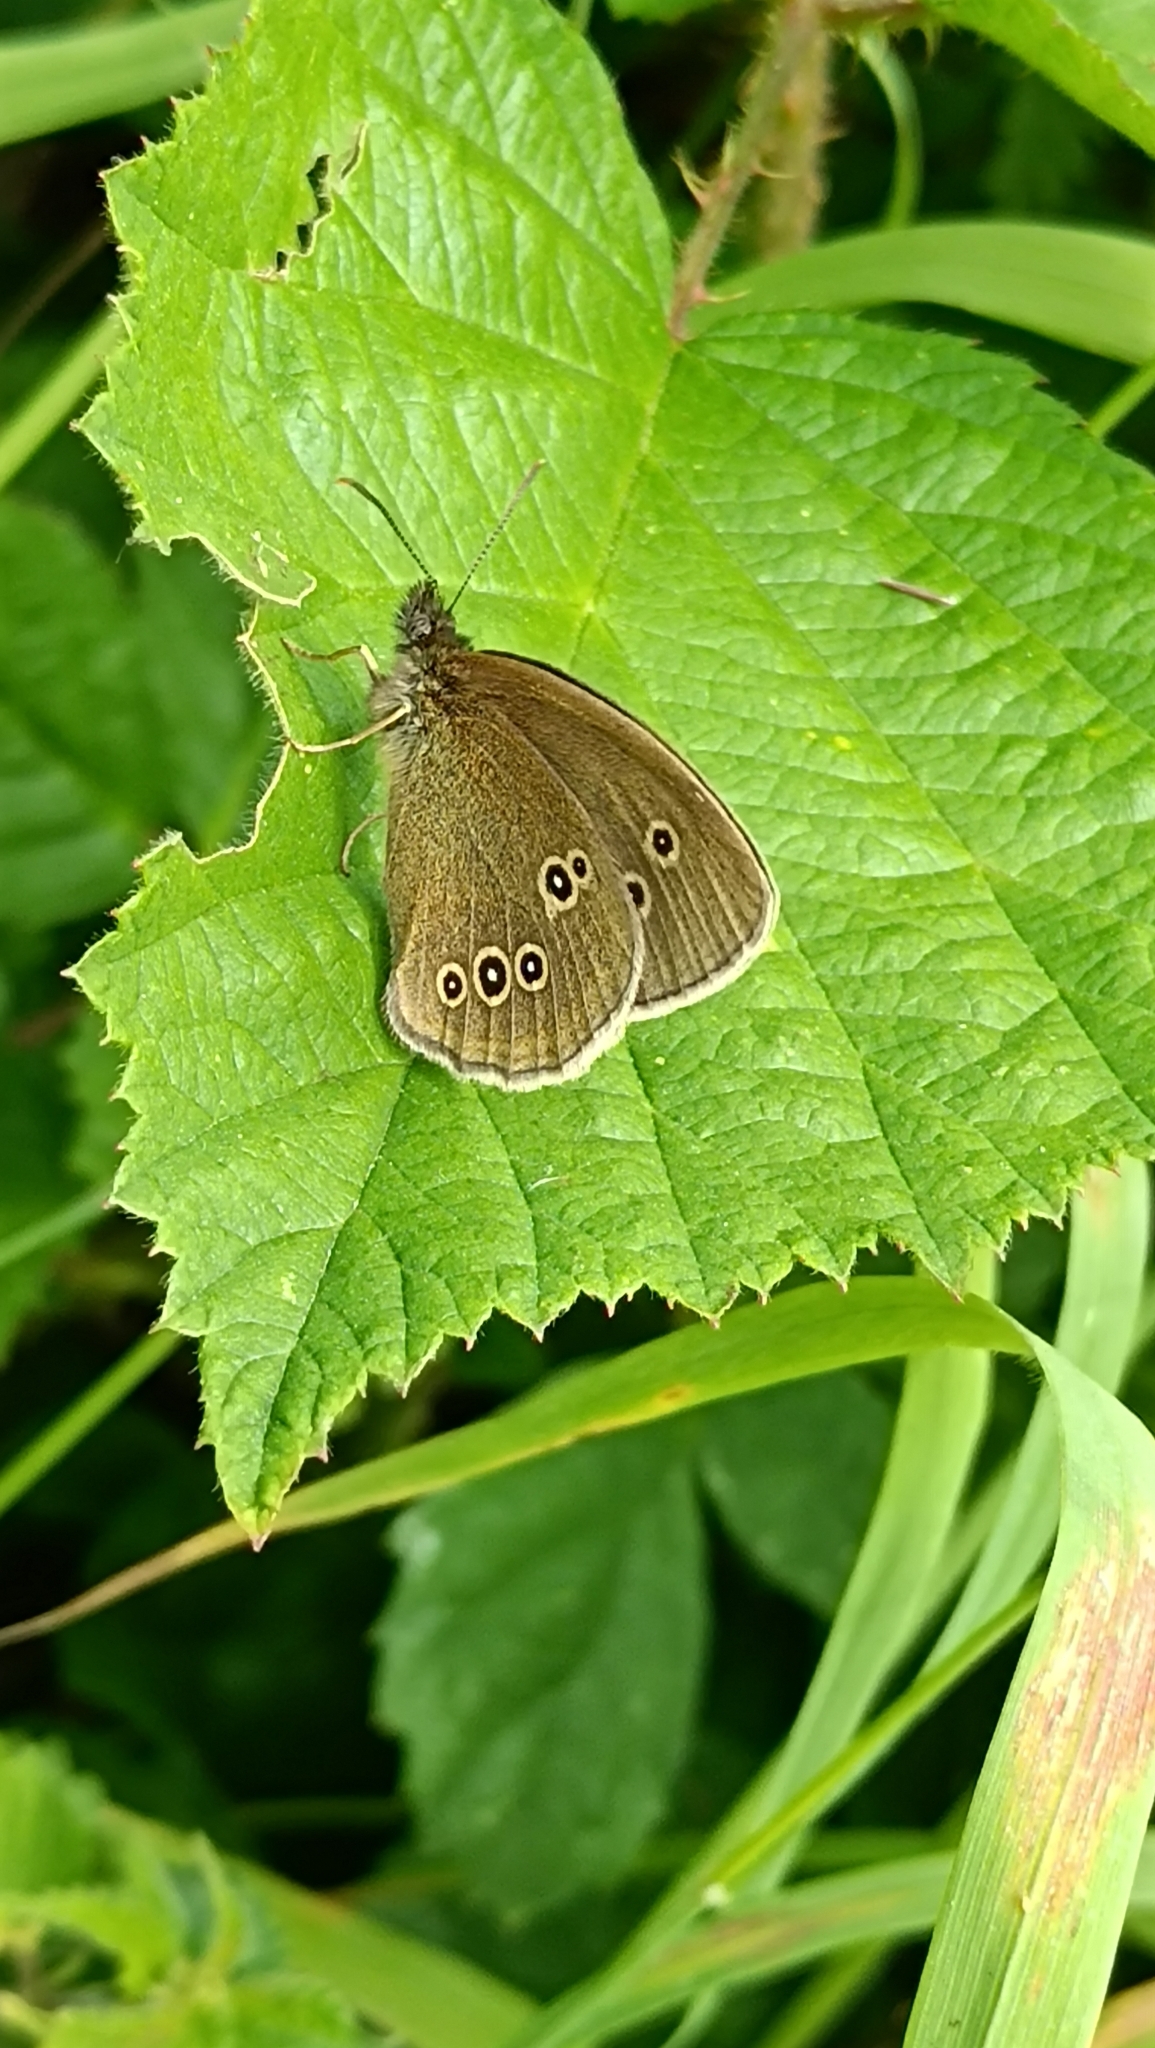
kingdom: Animalia
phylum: Arthropoda
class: Insecta
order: Lepidoptera
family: Nymphalidae
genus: Aphantopus
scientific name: Aphantopus hyperantus
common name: Ringlet
